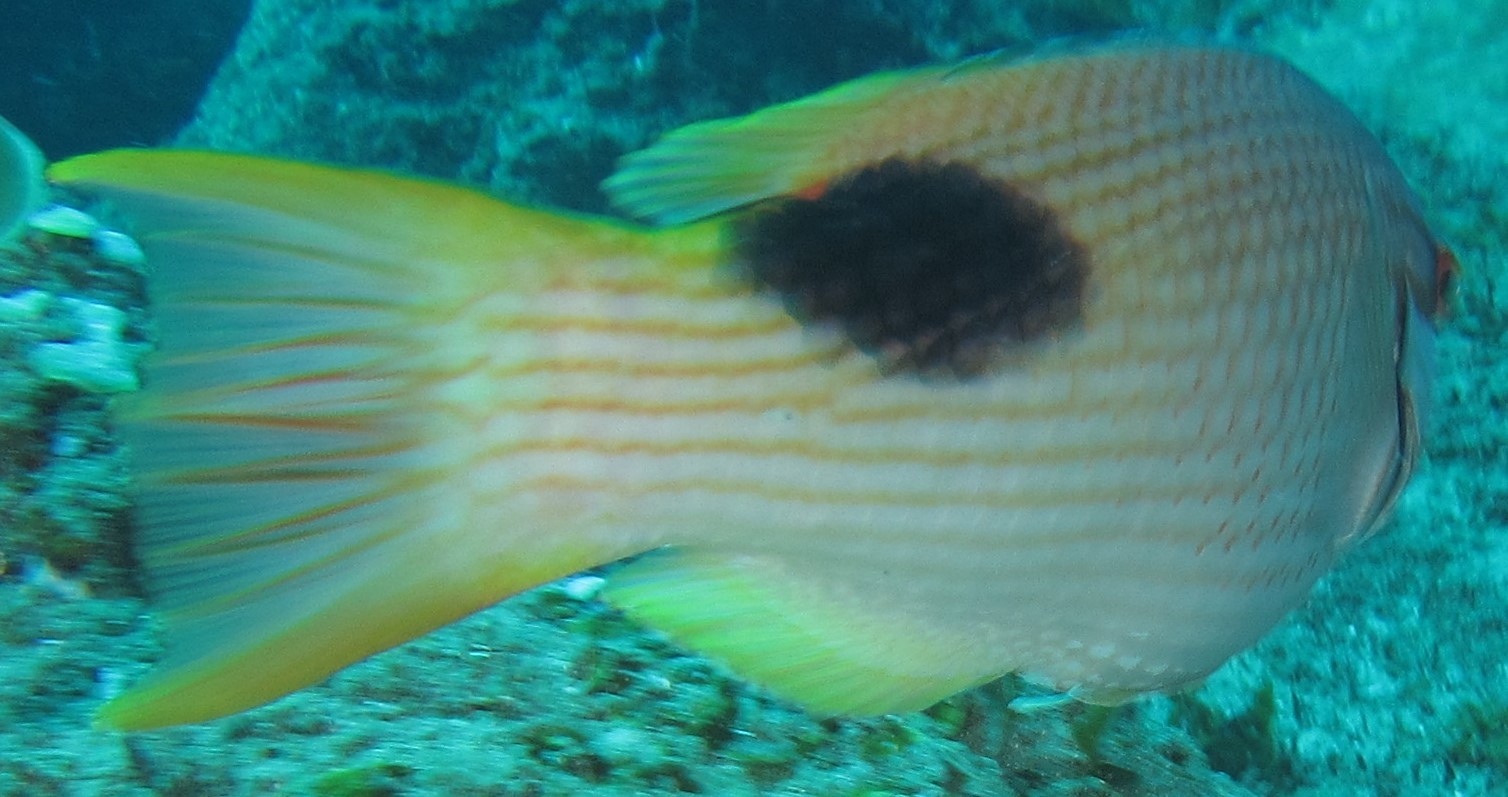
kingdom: Animalia
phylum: Chordata
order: Perciformes
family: Labridae
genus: Bodianus
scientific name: Bodianus bilunulatus
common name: Tarry hogfish
